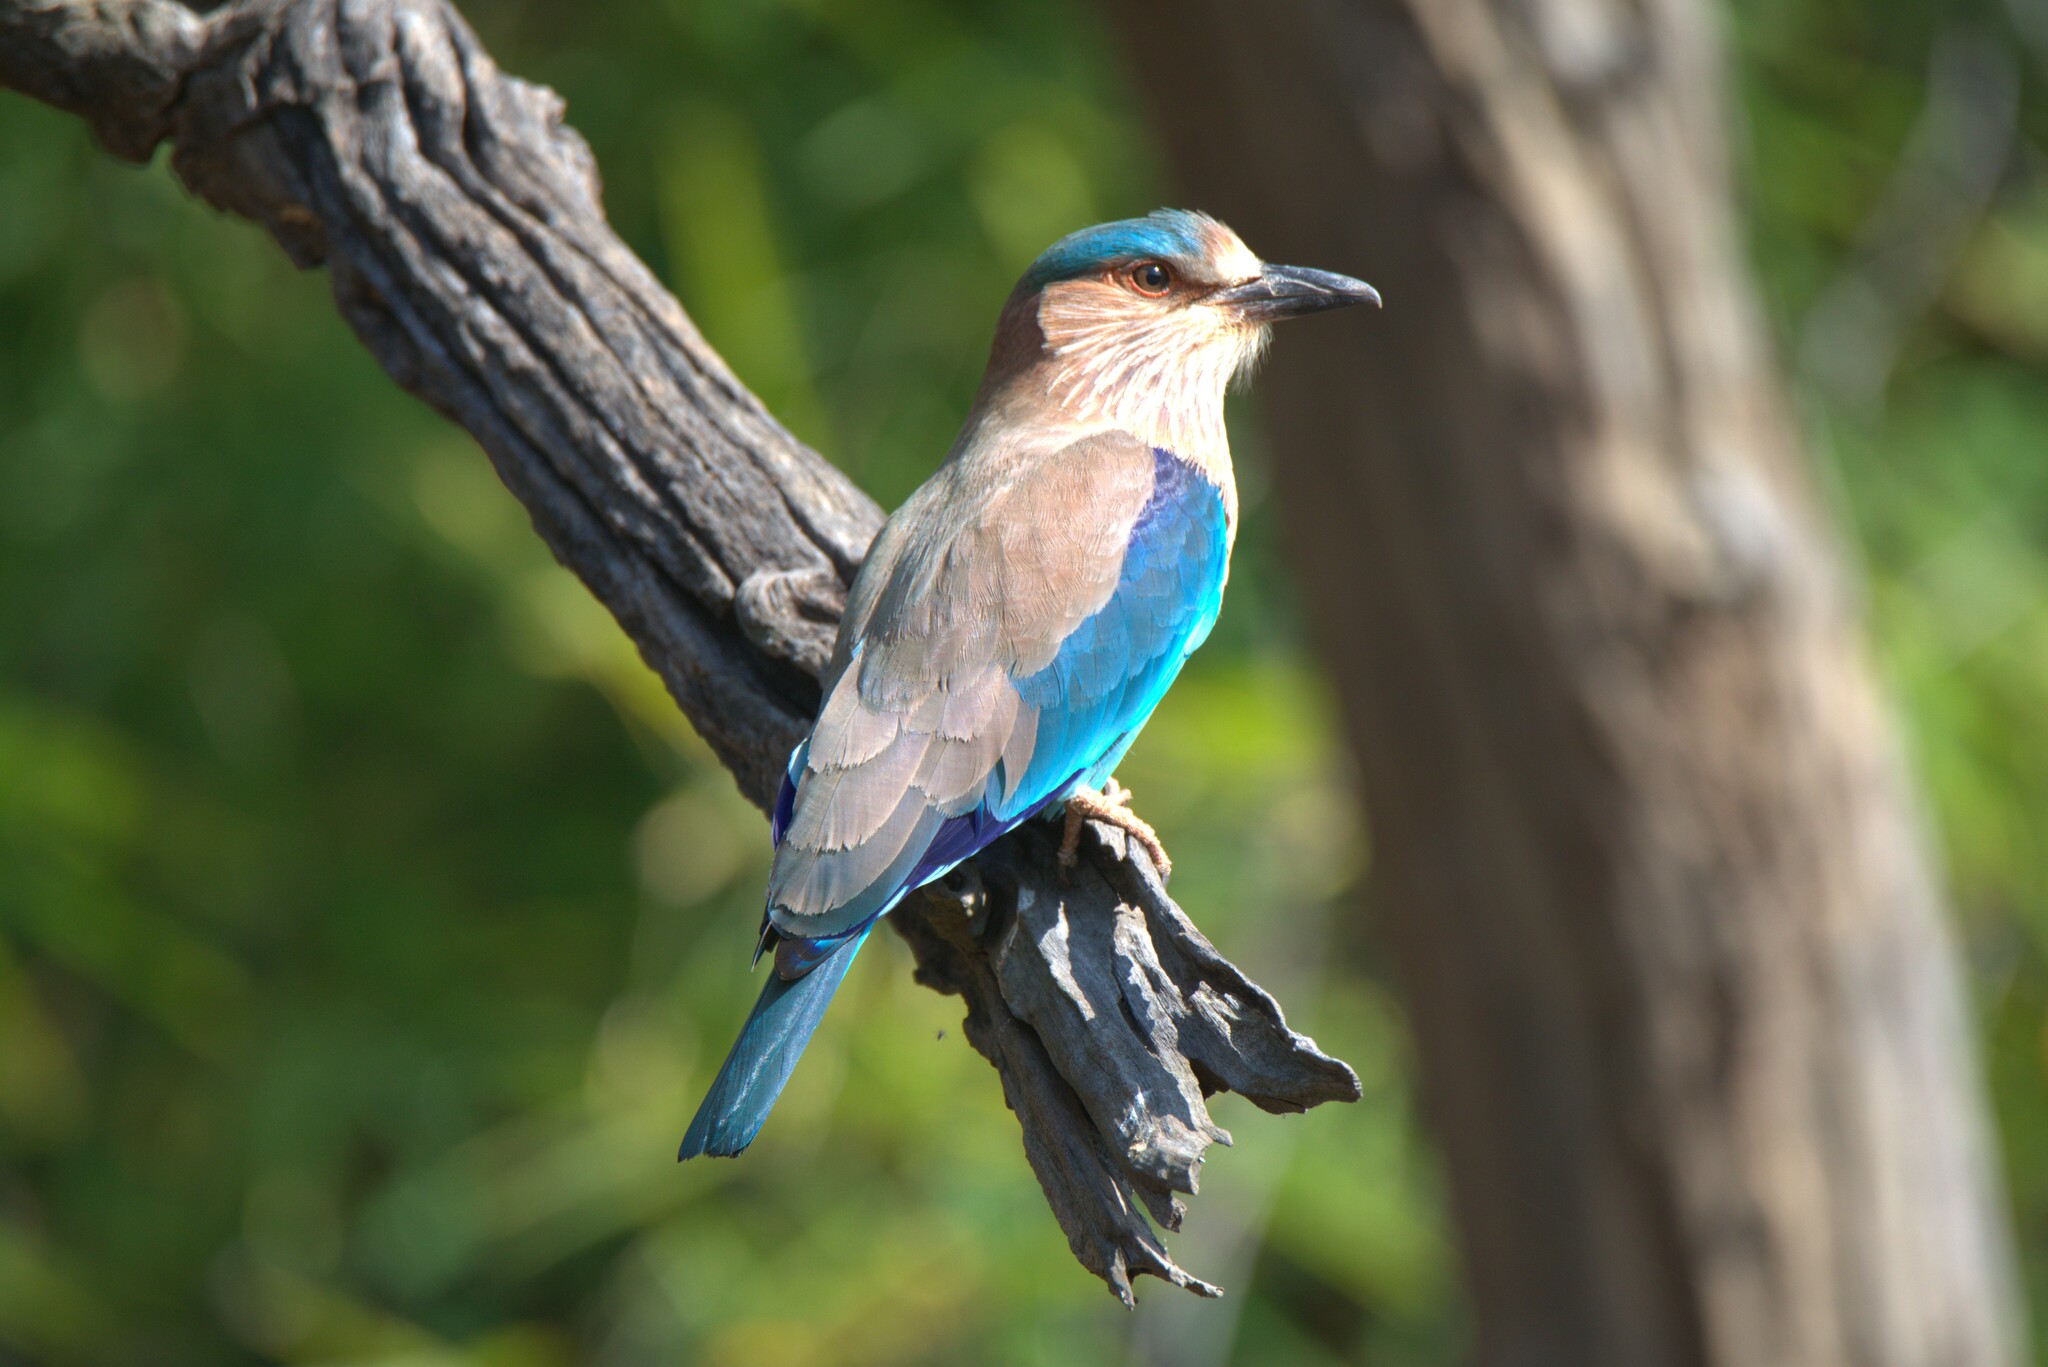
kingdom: Animalia
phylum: Chordata
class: Aves
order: Coraciiformes
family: Coraciidae
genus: Coracias
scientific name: Coracias benghalensis
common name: Indian roller
